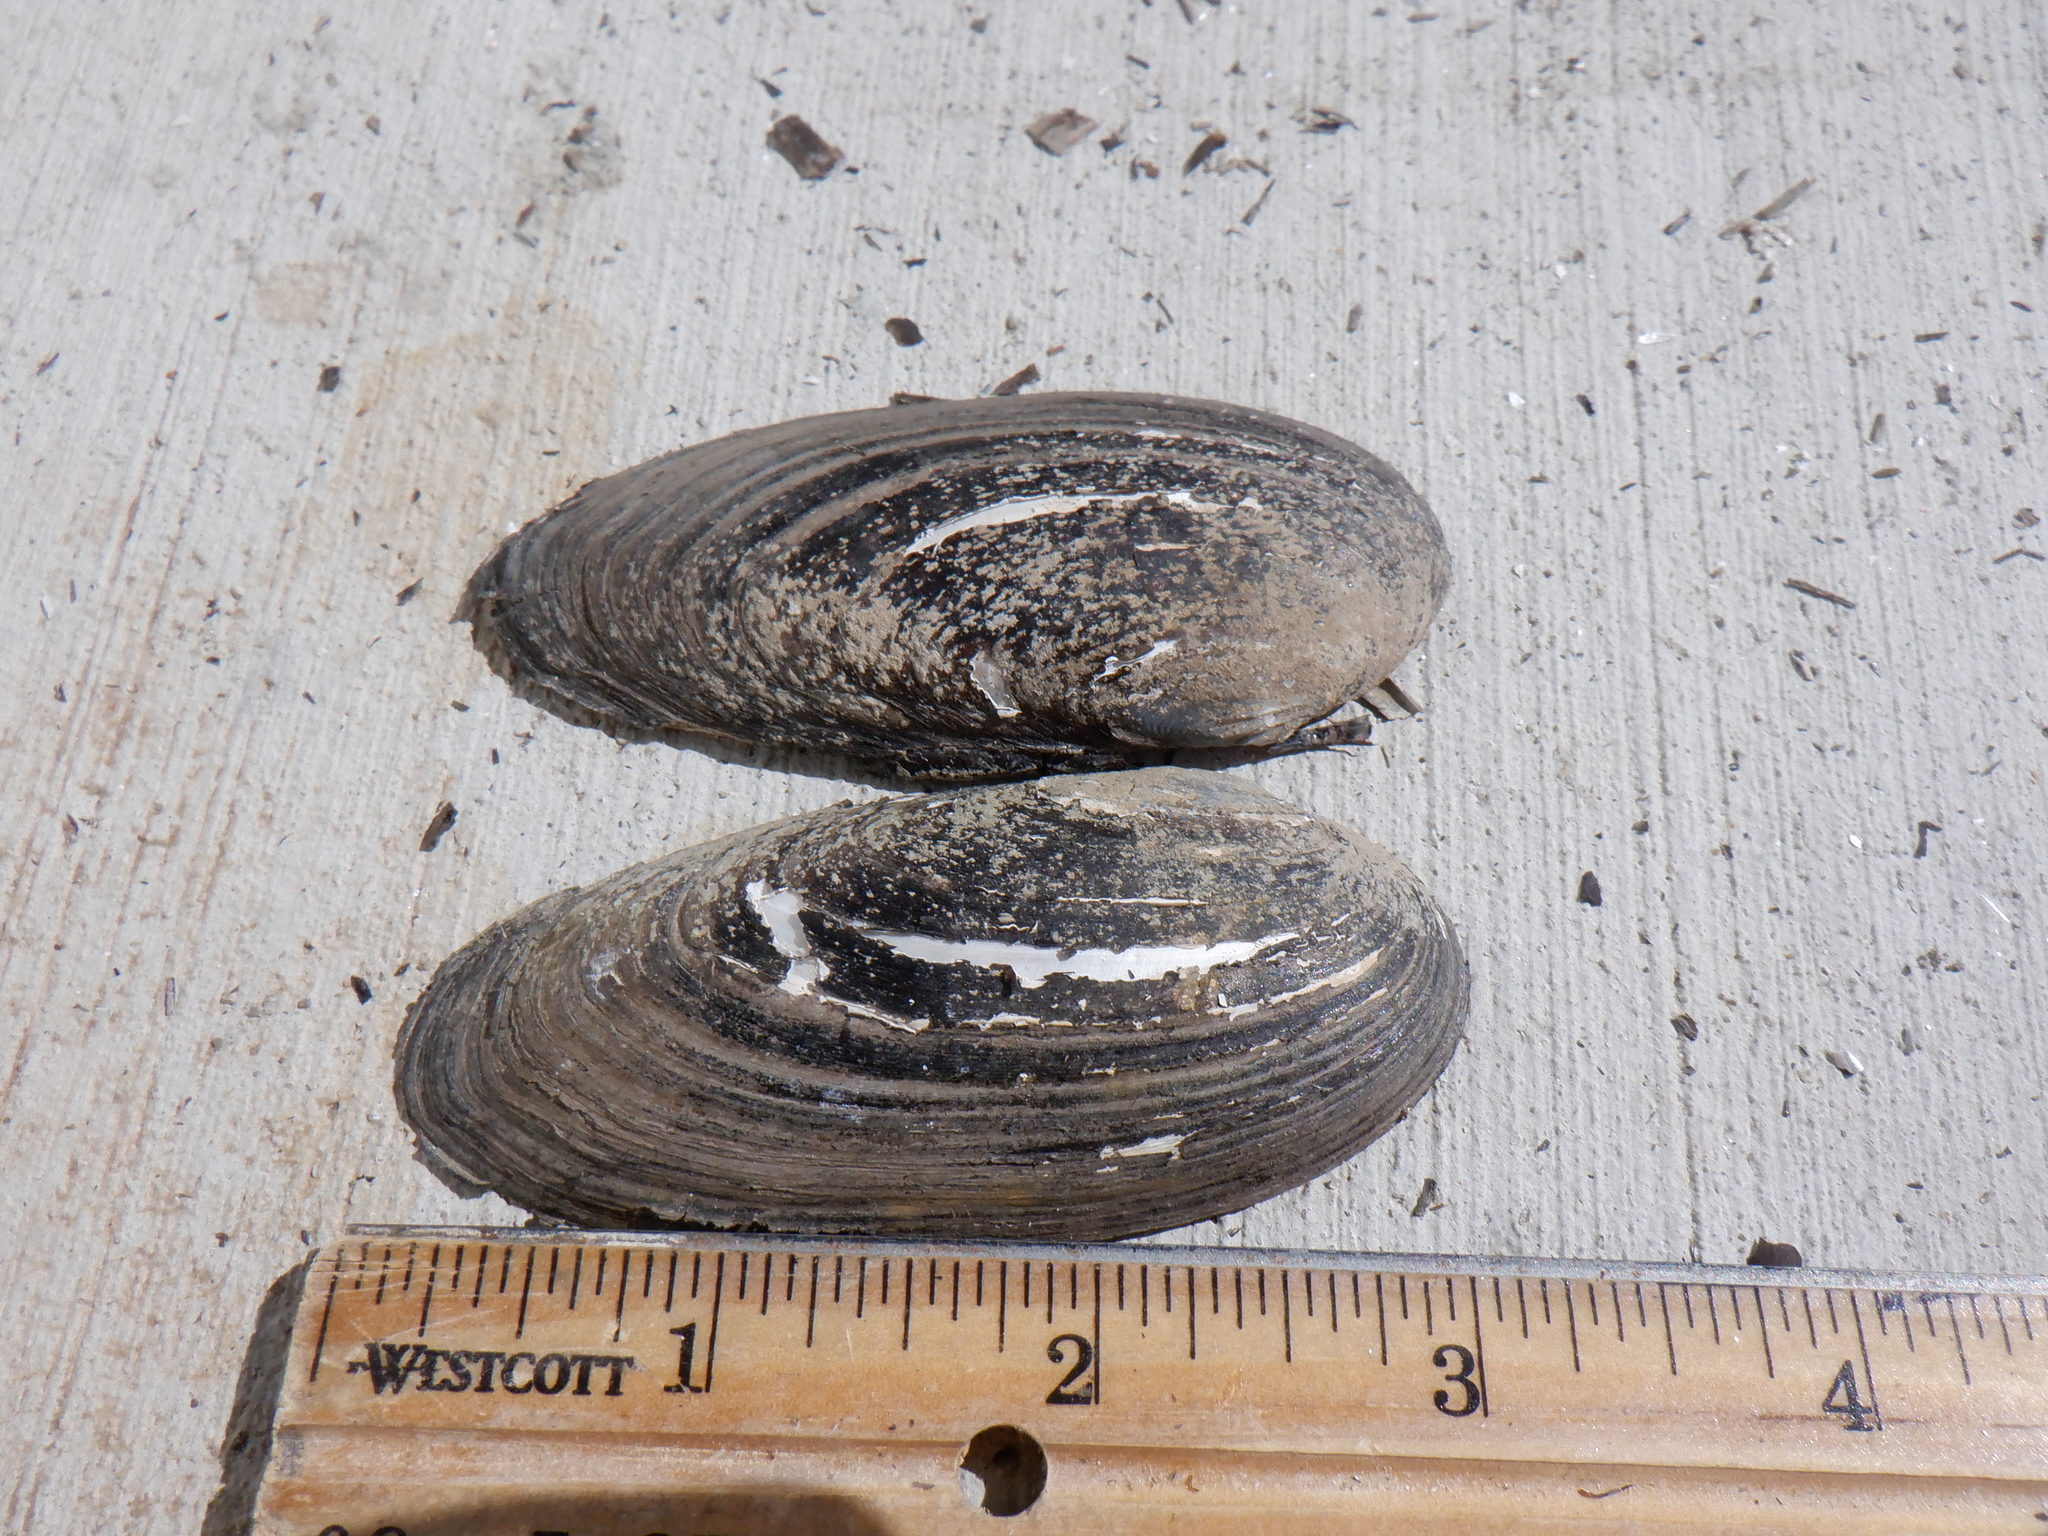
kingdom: Animalia
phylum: Mollusca
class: Bivalvia
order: Unionida
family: Unionidae
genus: Eurynia
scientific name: Eurynia dilatata
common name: Spike
